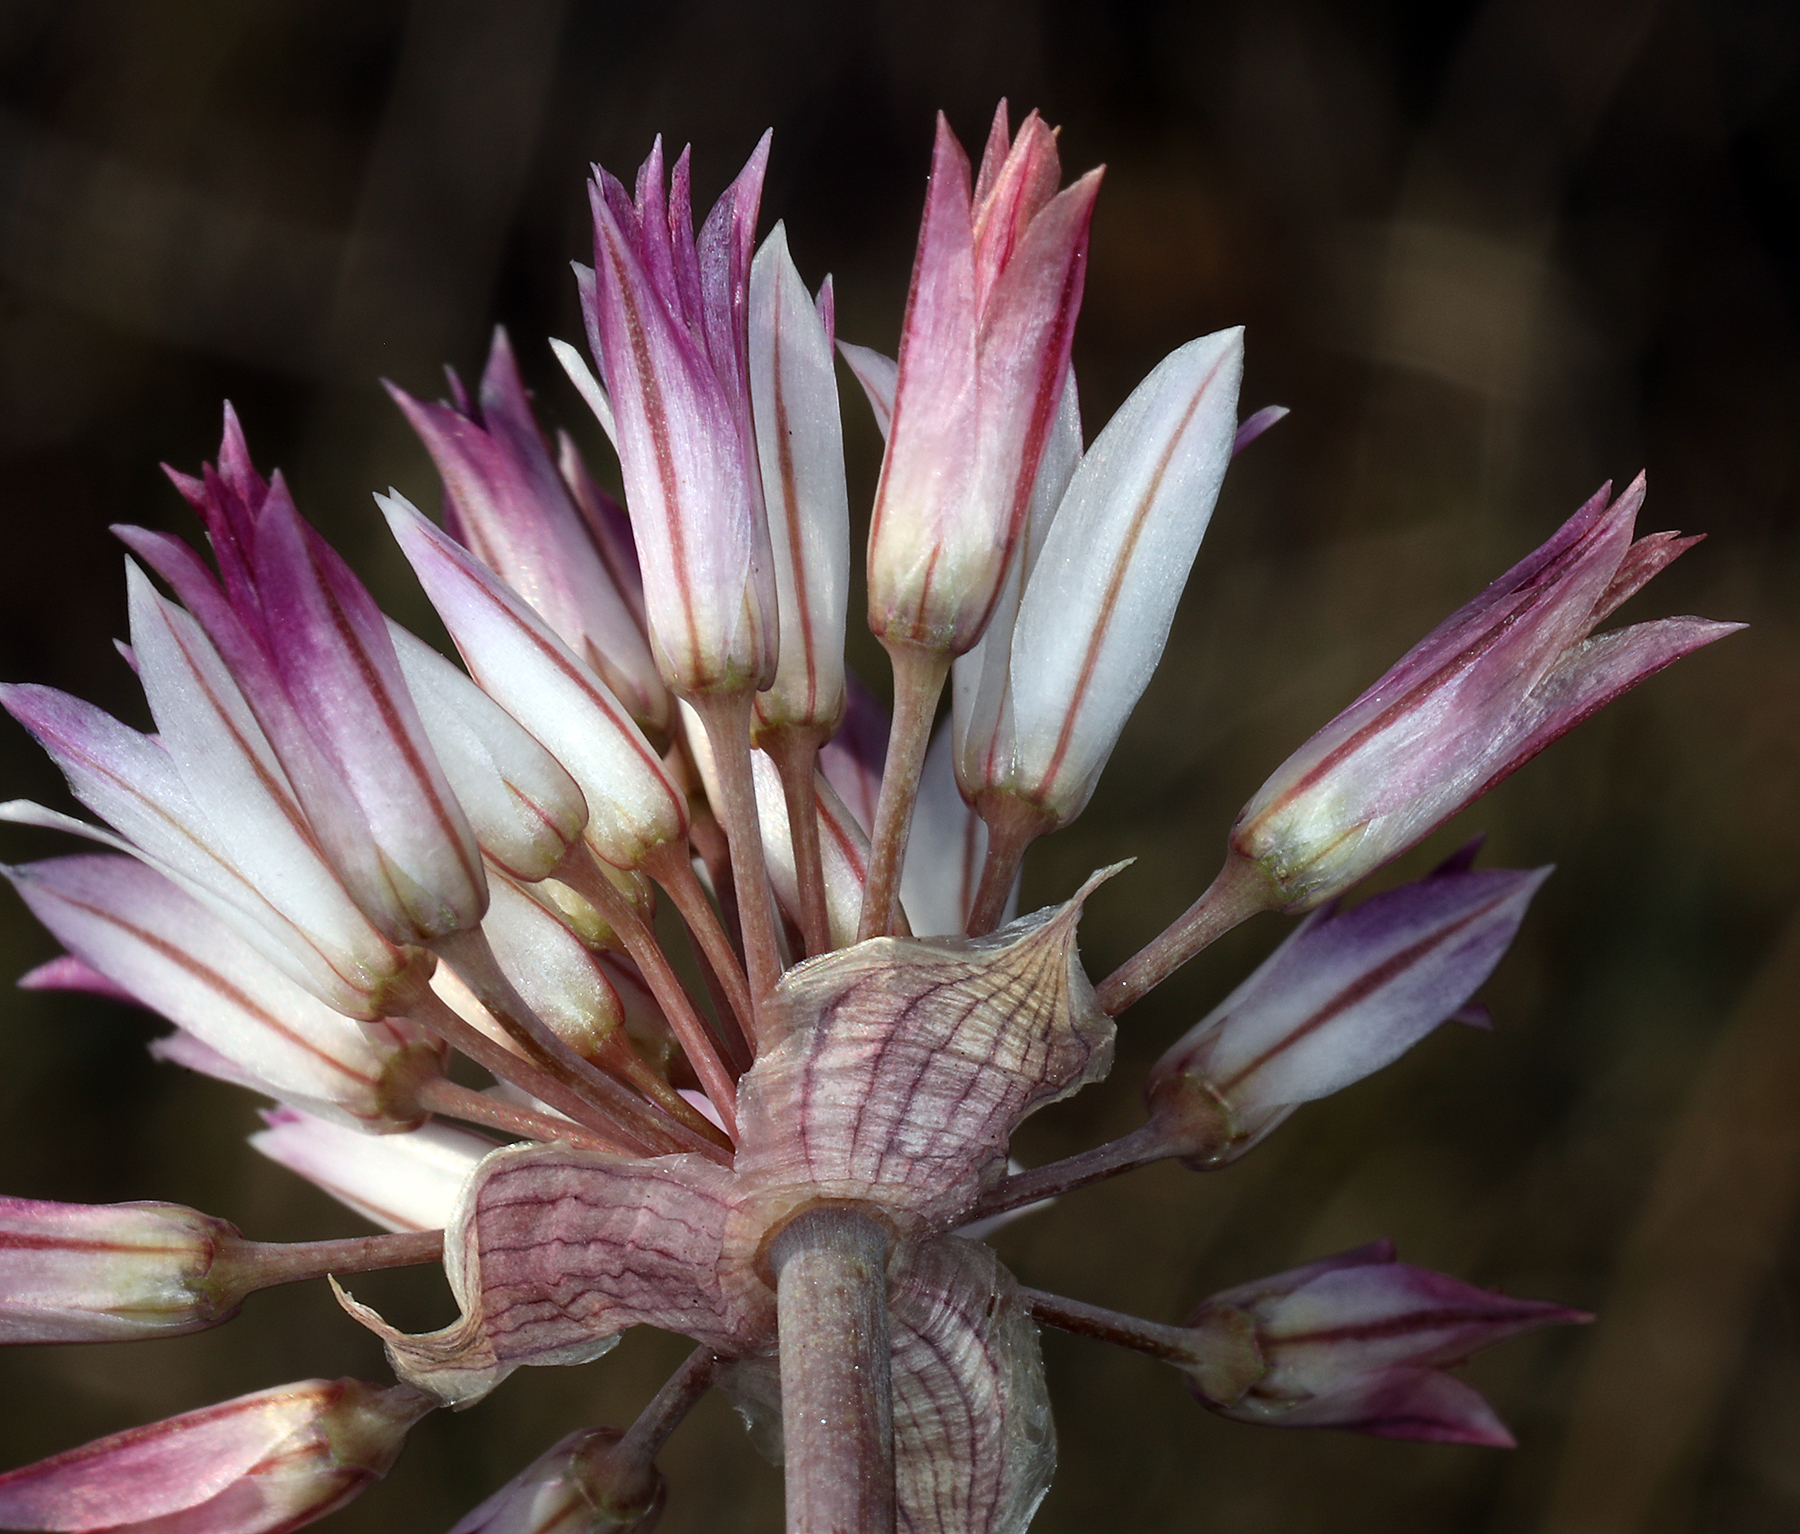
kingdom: Plantae
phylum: Tracheophyta
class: Liliopsida
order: Asparagales
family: Amaryllidaceae
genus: Allium
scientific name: Allium atrorubens
